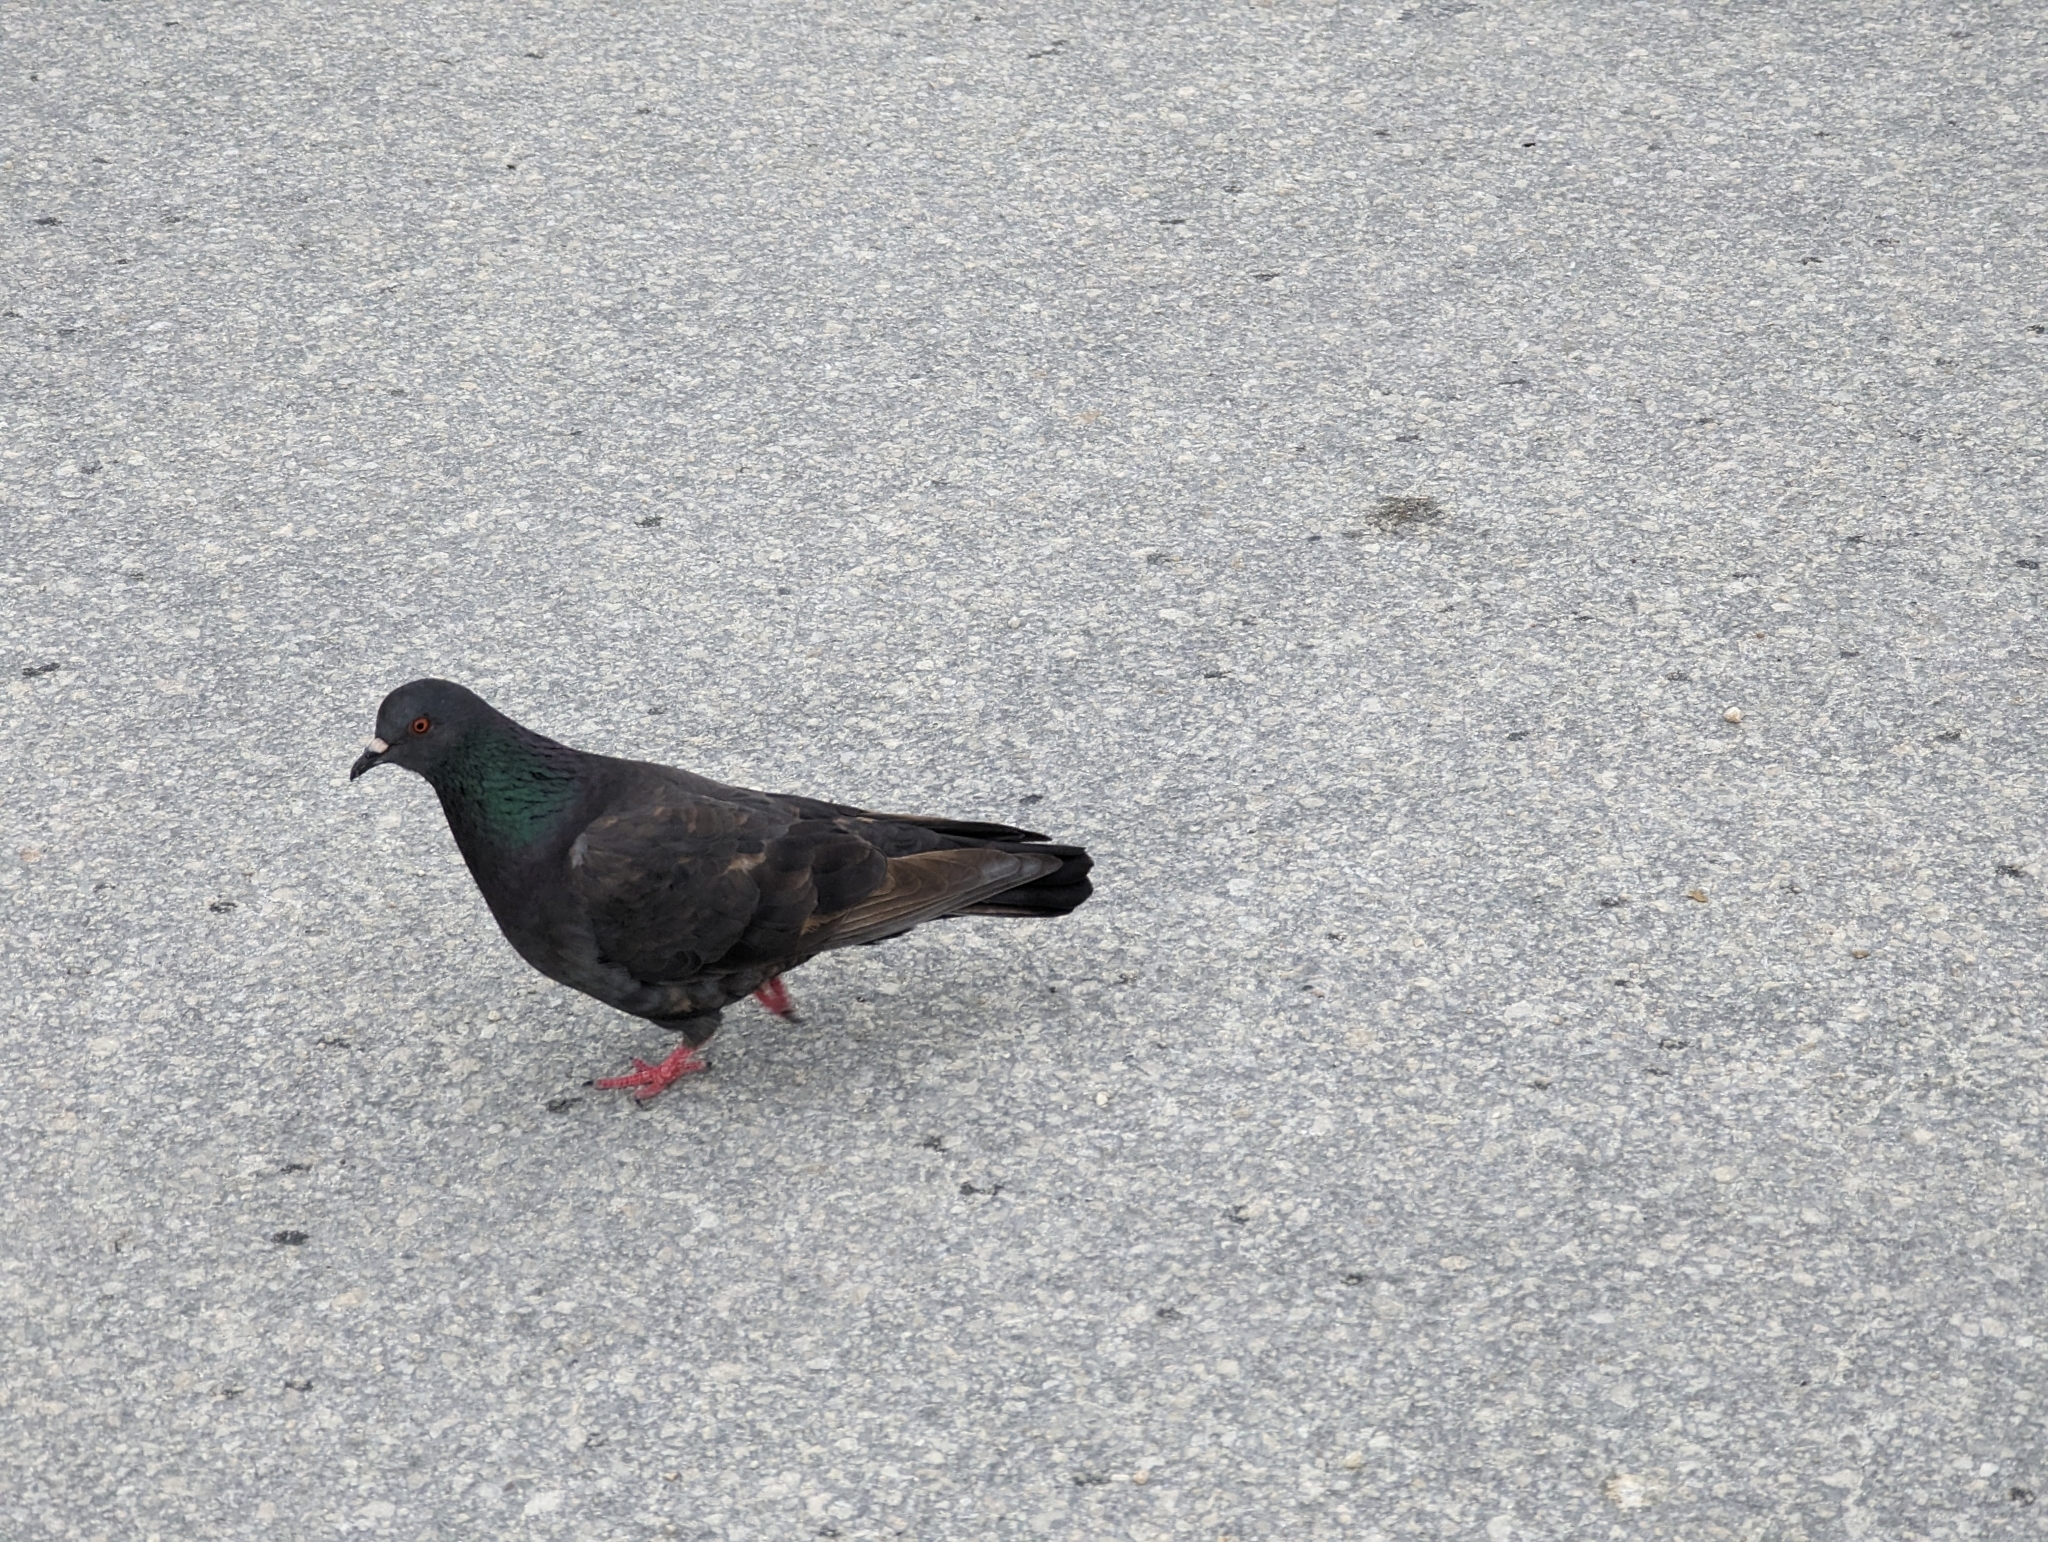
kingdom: Animalia
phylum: Chordata
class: Aves
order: Columbiformes
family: Columbidae
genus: Columba
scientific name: Columba livia
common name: Rock pigeon
